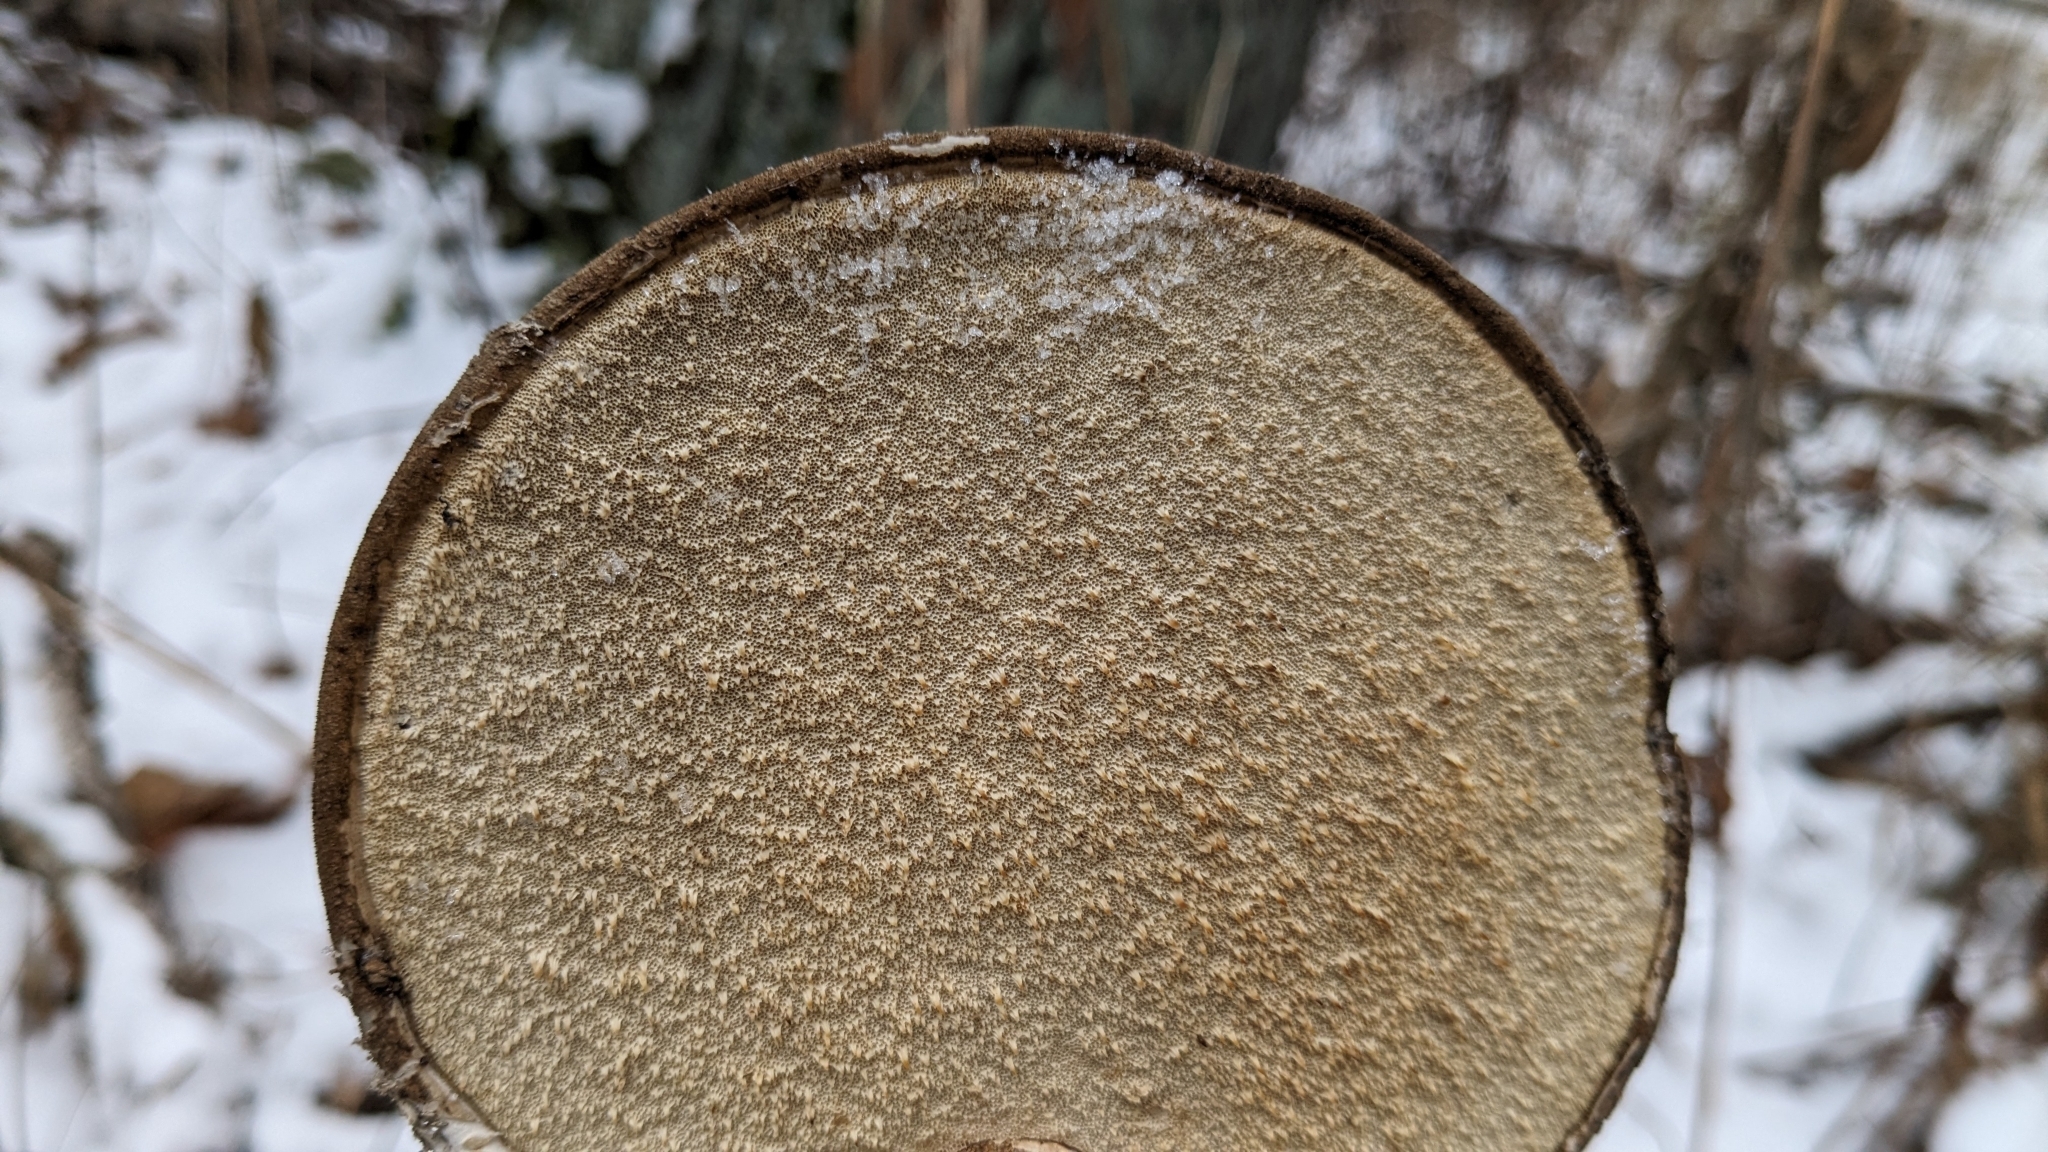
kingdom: Fungi
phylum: Basidiomycota
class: Agaricomycetes
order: Polyporales
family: Fomitopsidaceae
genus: Fomitopsis
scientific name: Fomitopsis betulina
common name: Birch polypore
